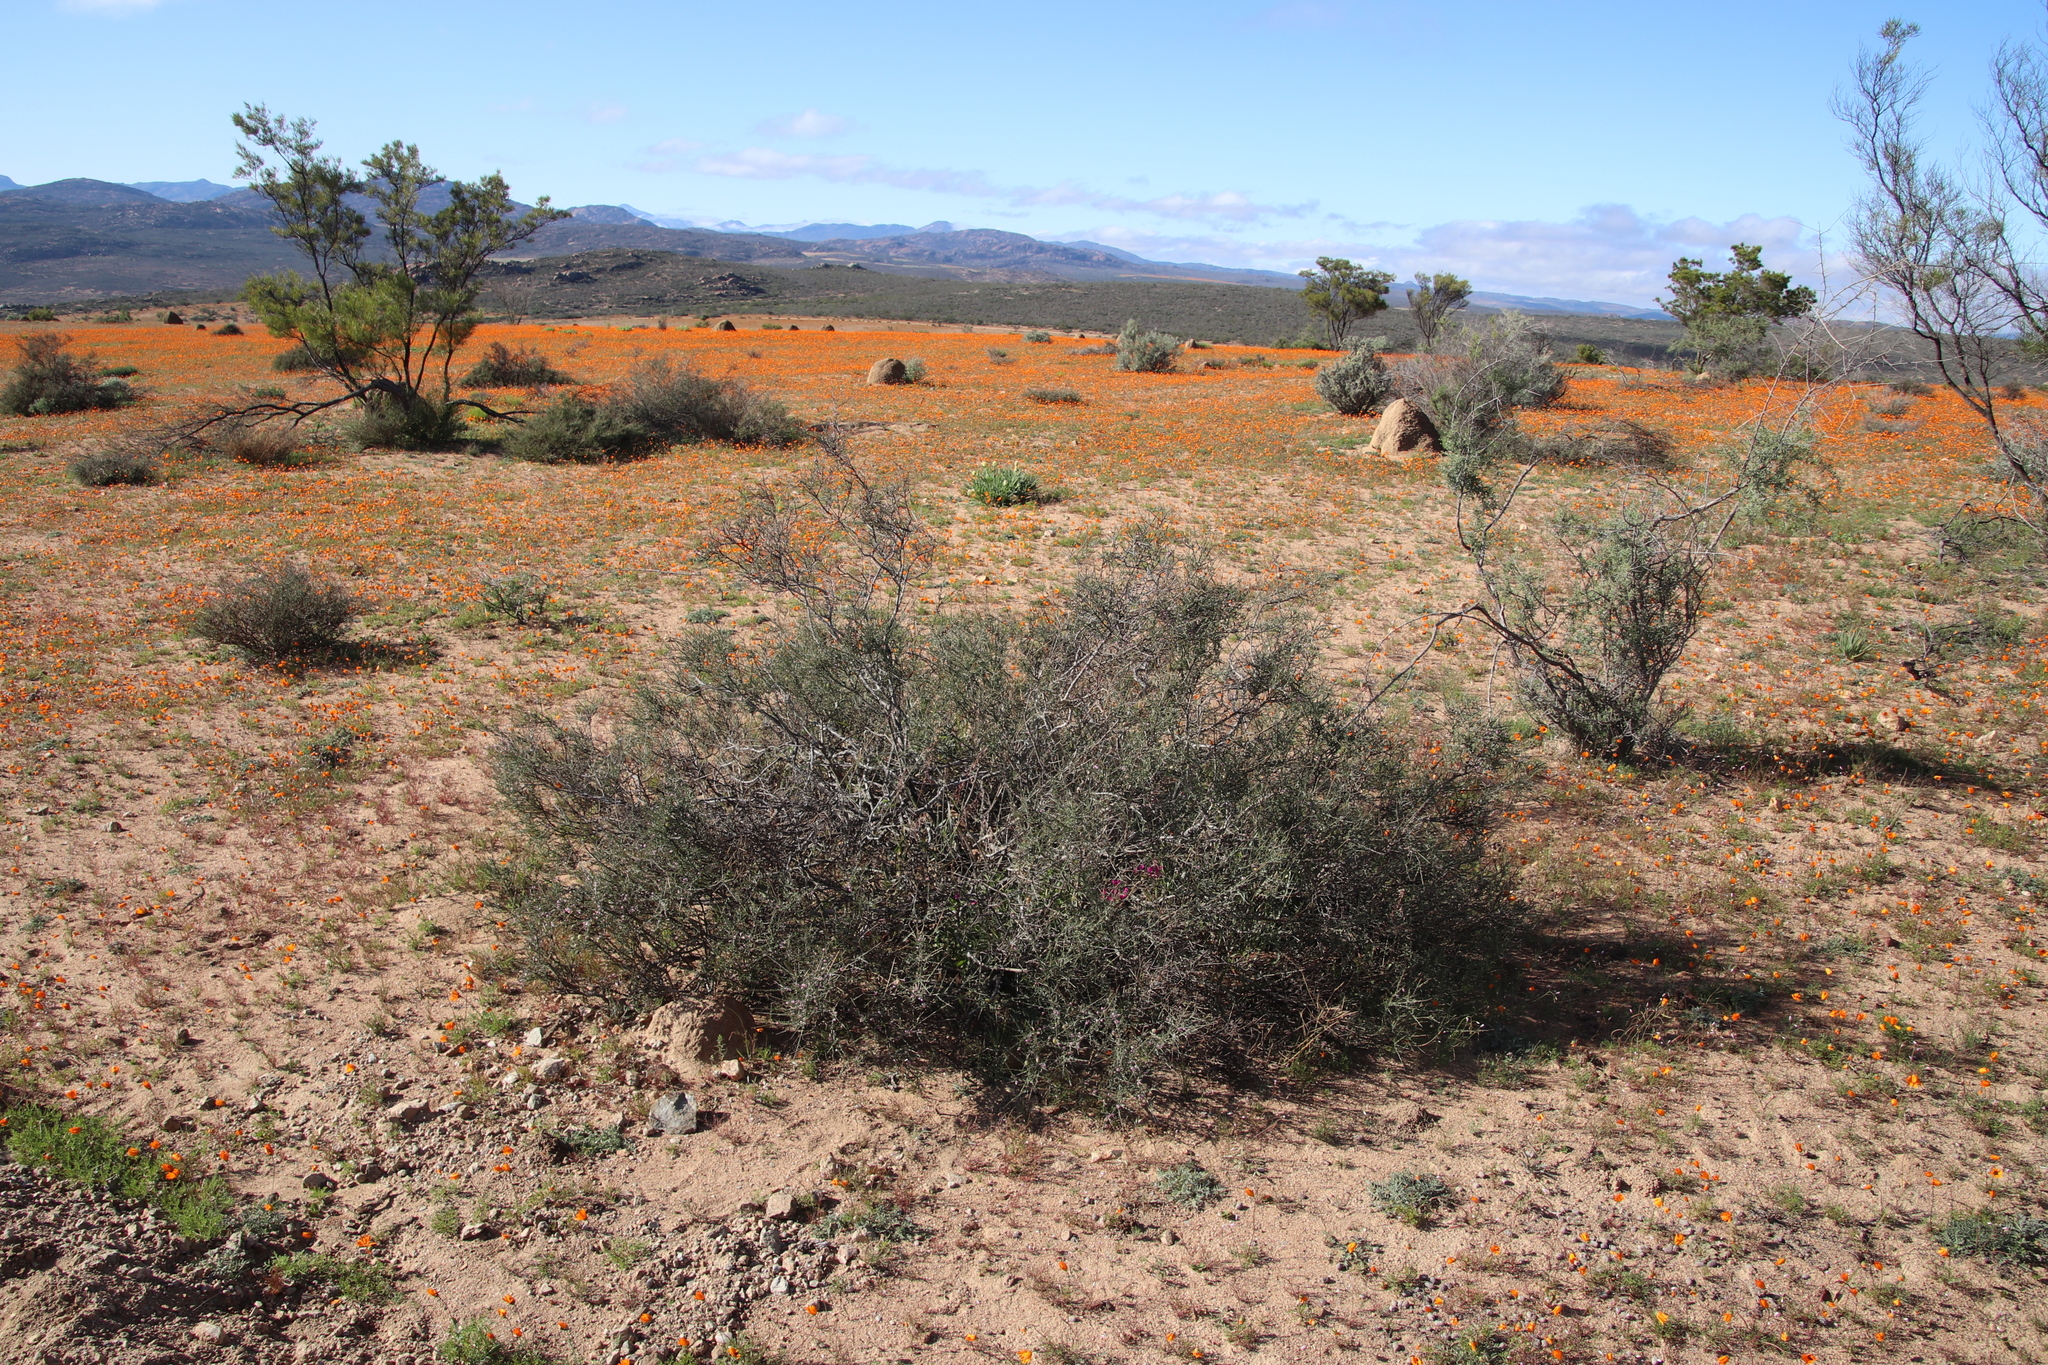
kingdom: Plantae
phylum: Tracheophyta
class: Magnoliopsida
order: Fabales
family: Polygalaceae
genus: Muraltia
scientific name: Muraltia spinosa
